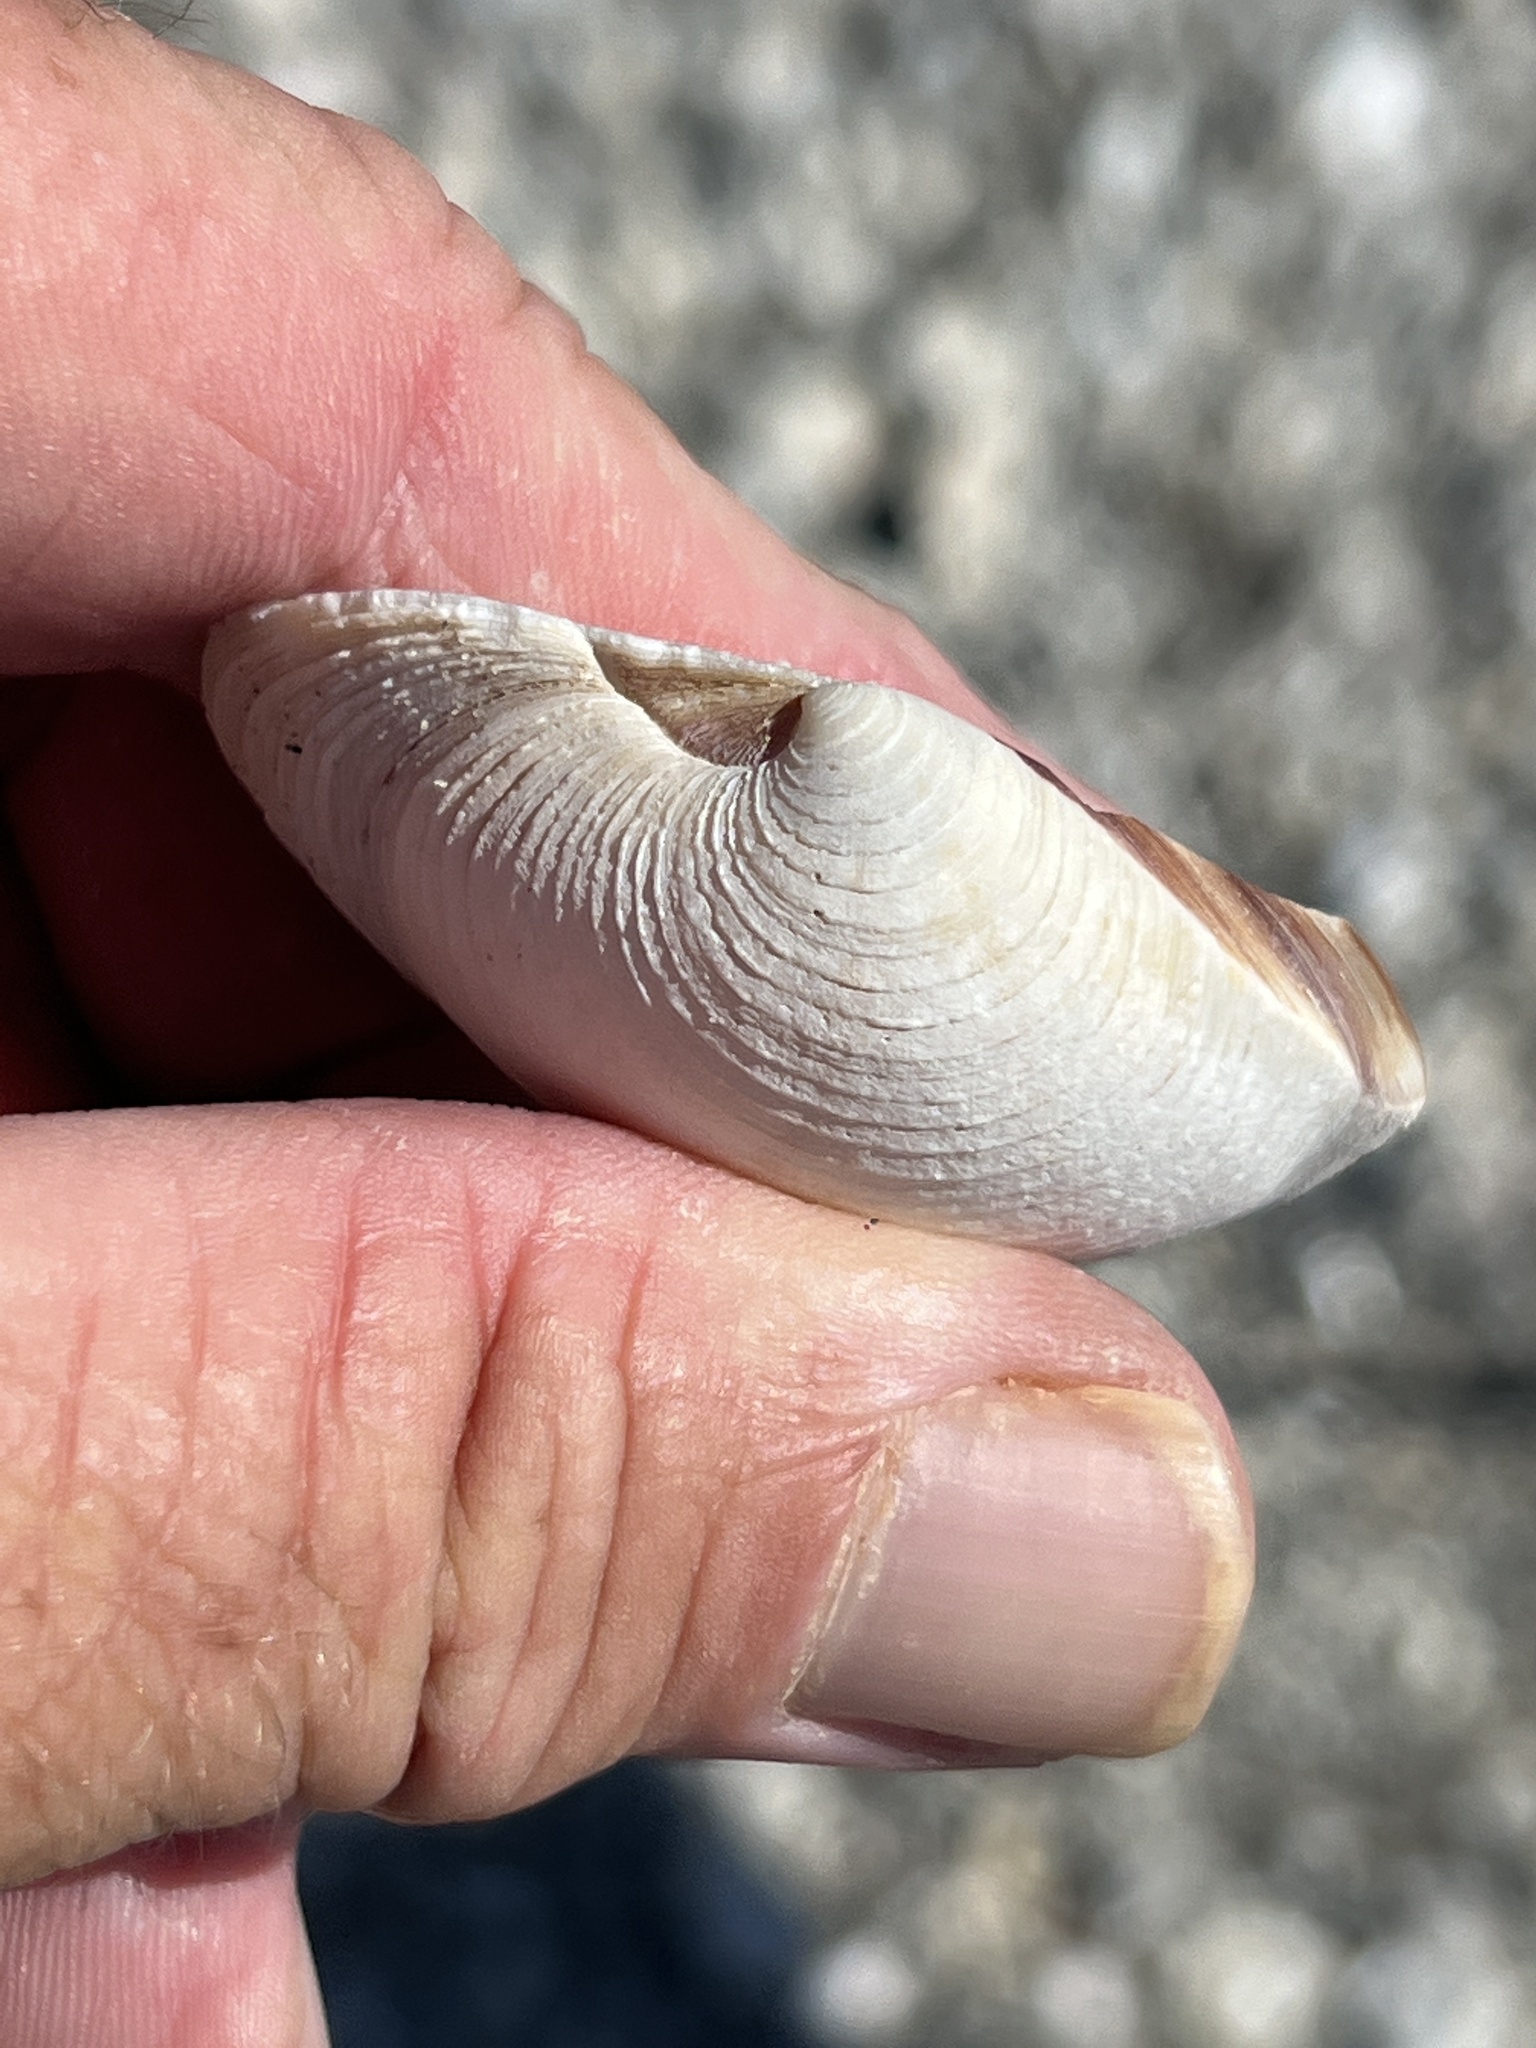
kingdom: Animalia
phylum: Mollusca
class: Bivalvia
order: Venerida
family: Veneridae
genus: Mercenaria
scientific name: Mercenaria campechiensis
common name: Südliche quahog-muschel
